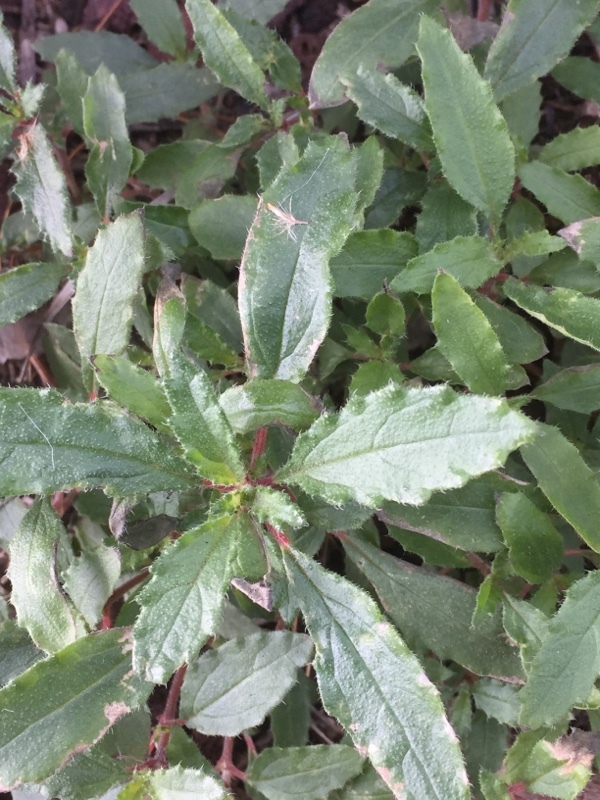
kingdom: Plantae
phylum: Tracheophyta
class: Magnoliopsida
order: Rosales
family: Urticaceae
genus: Forsskaolea
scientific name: Forsskaolea angustifolia
